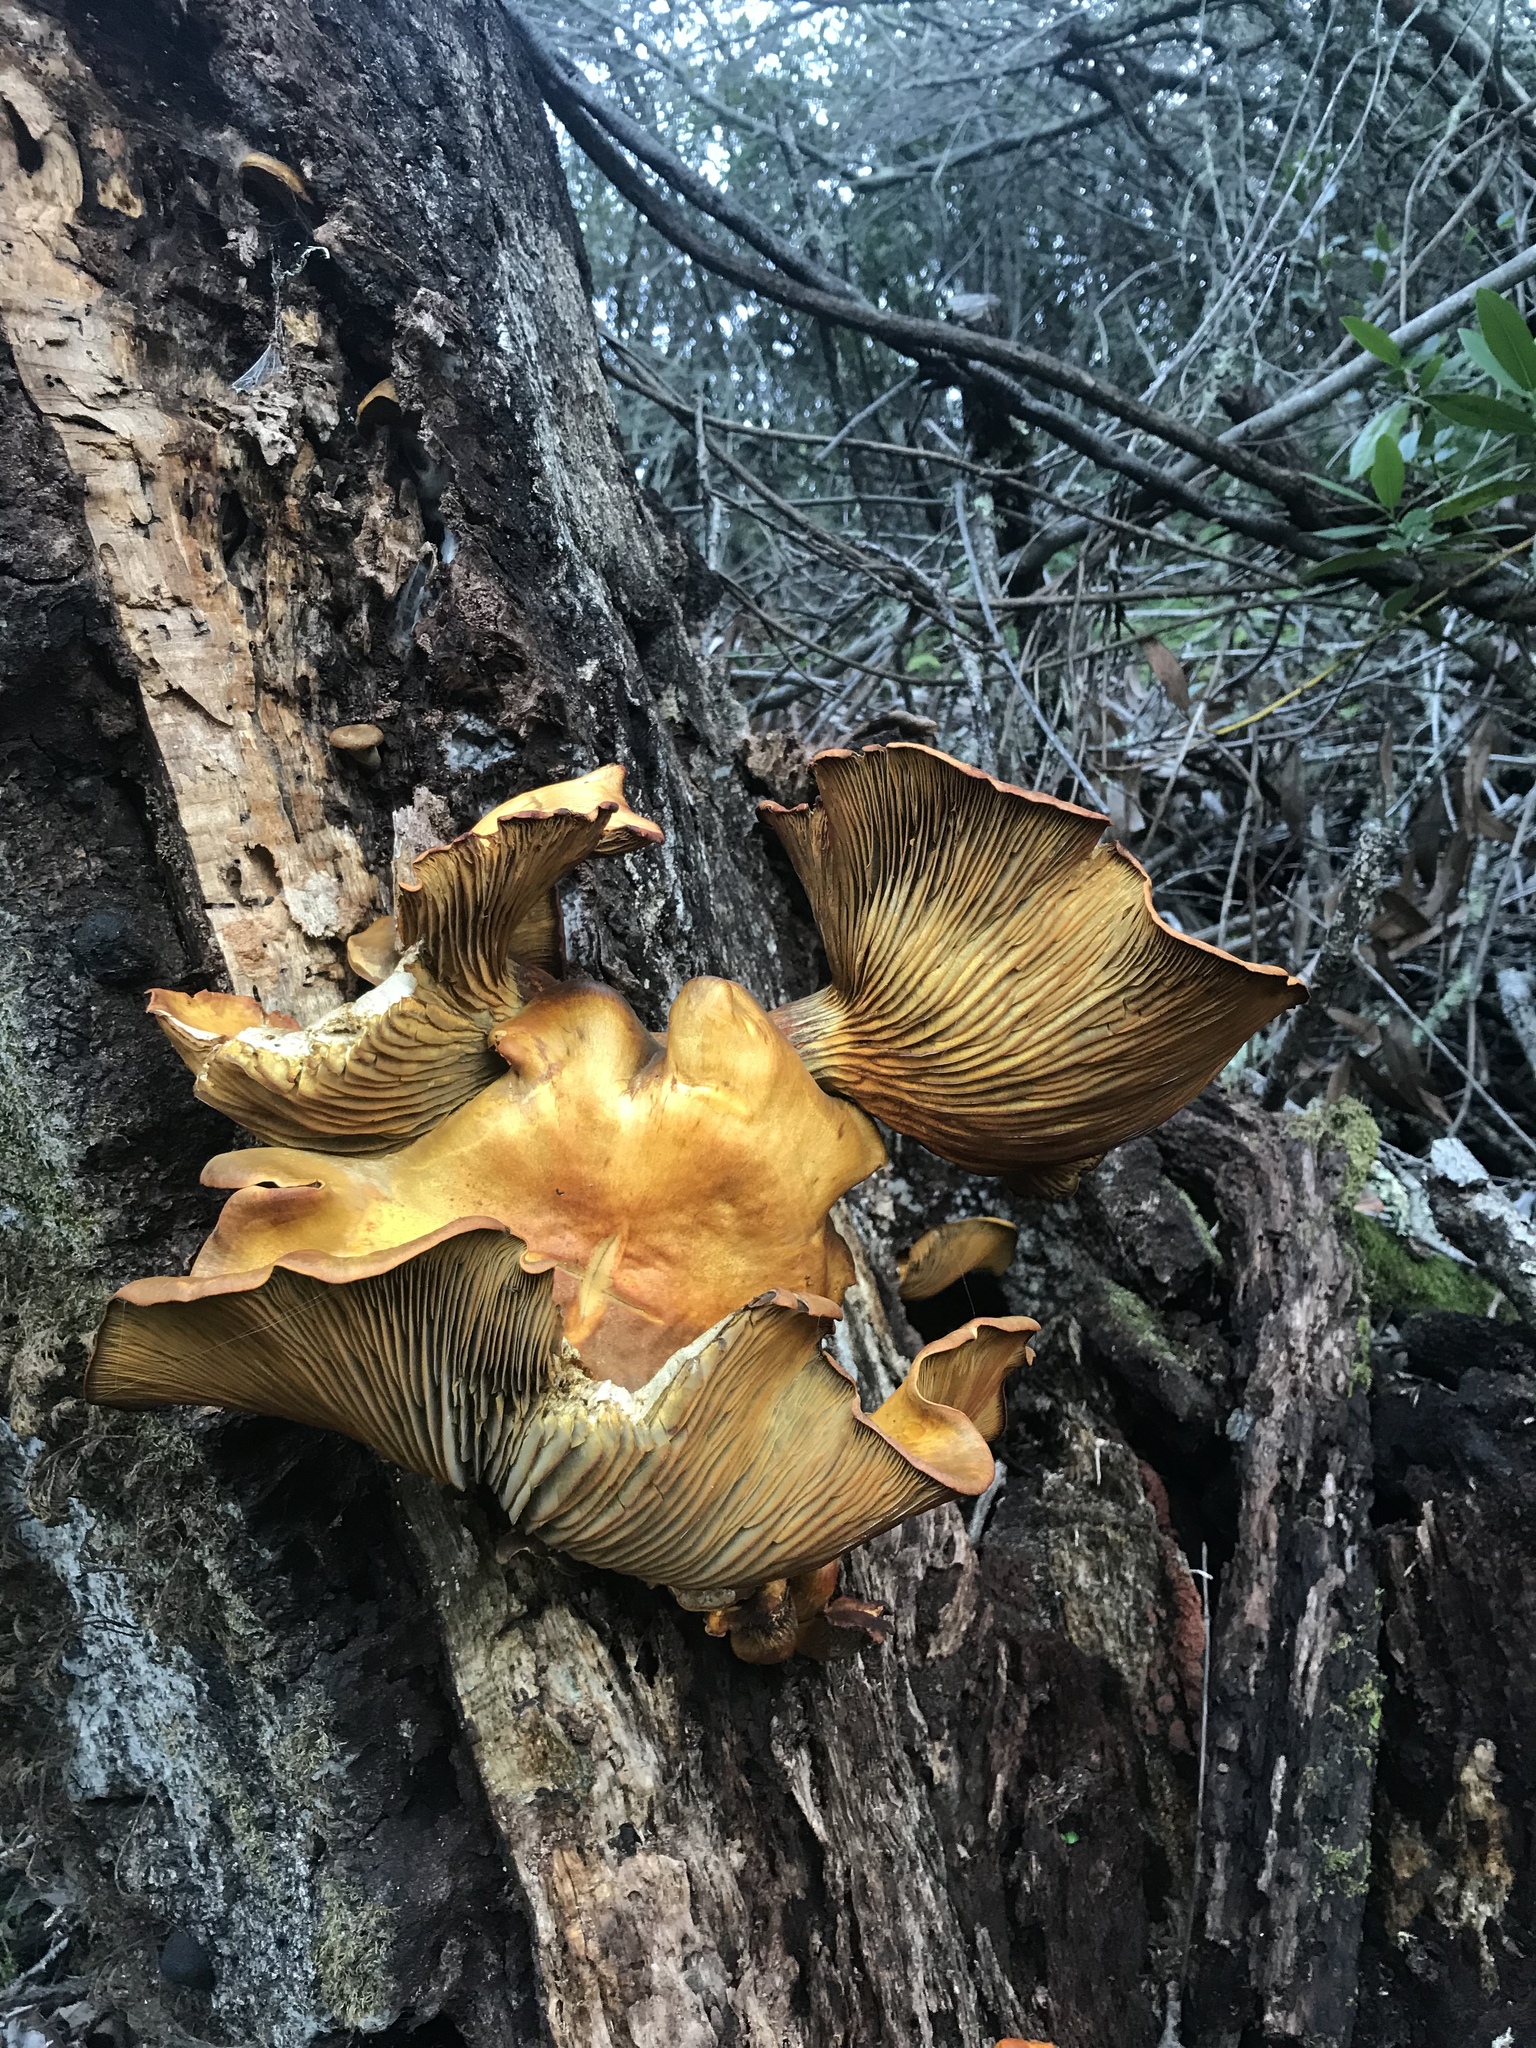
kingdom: Fungi
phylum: Basidiomycota
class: Agaricomycetes
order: Agaricales
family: Omphalotaceae
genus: Omphalotus
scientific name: Omphalotus olivascens
